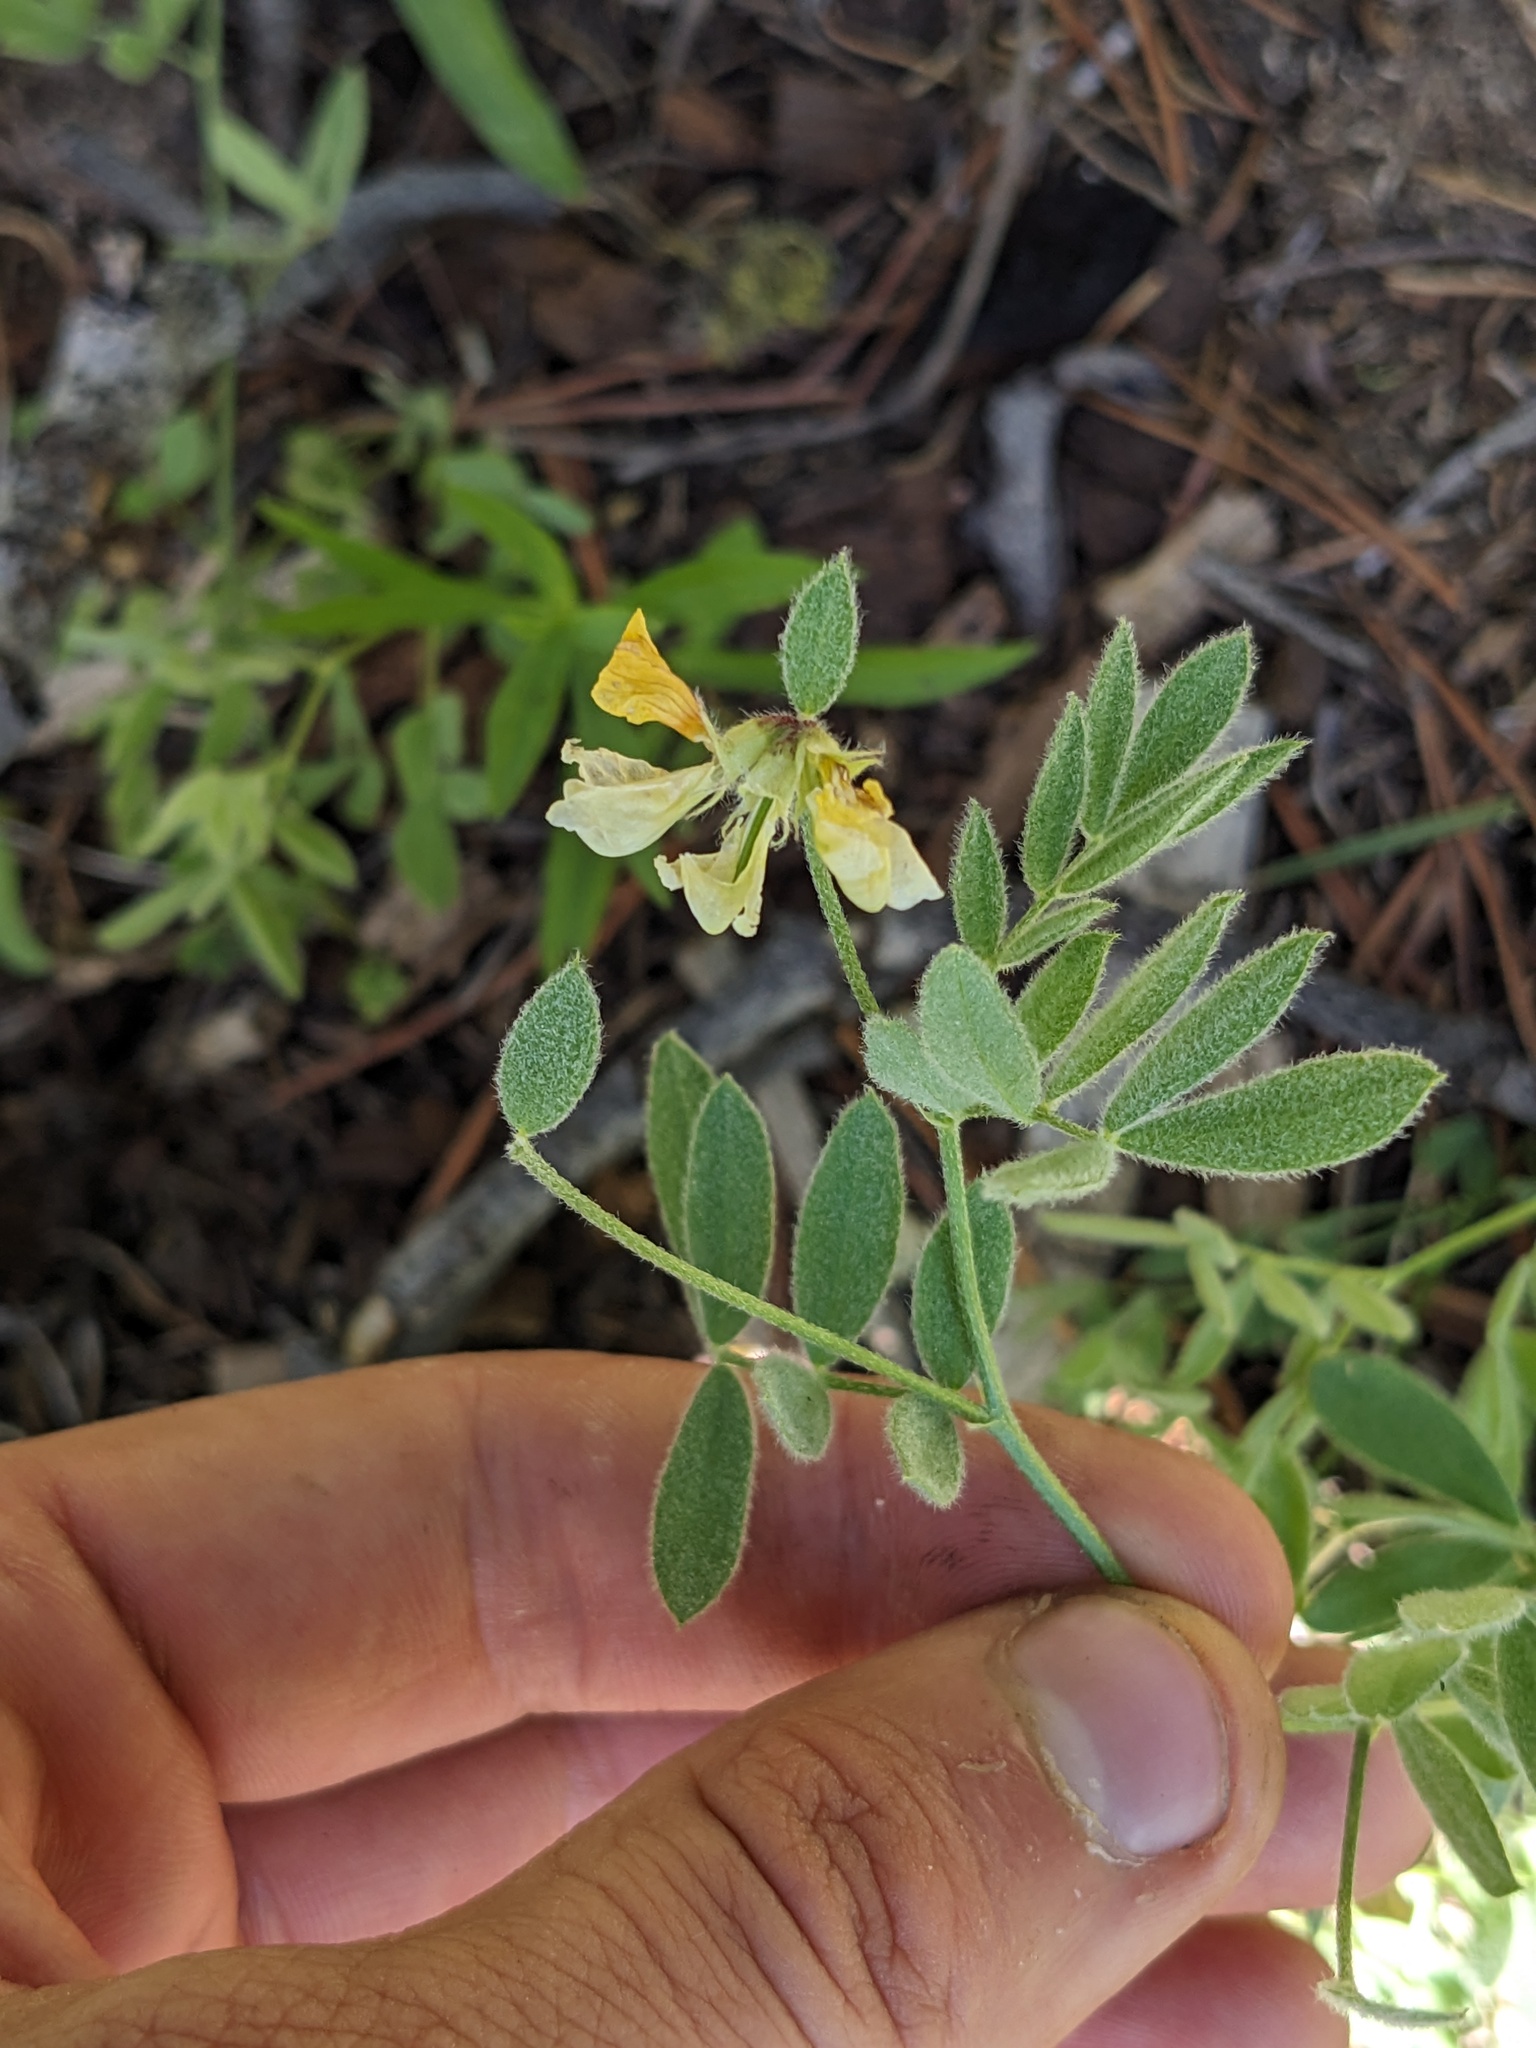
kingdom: Plantae
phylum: Tracheophyta
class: Magnoliopsida
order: Fabales
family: Fabaceae
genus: Hosackia
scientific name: Hosackia oblongifolia
